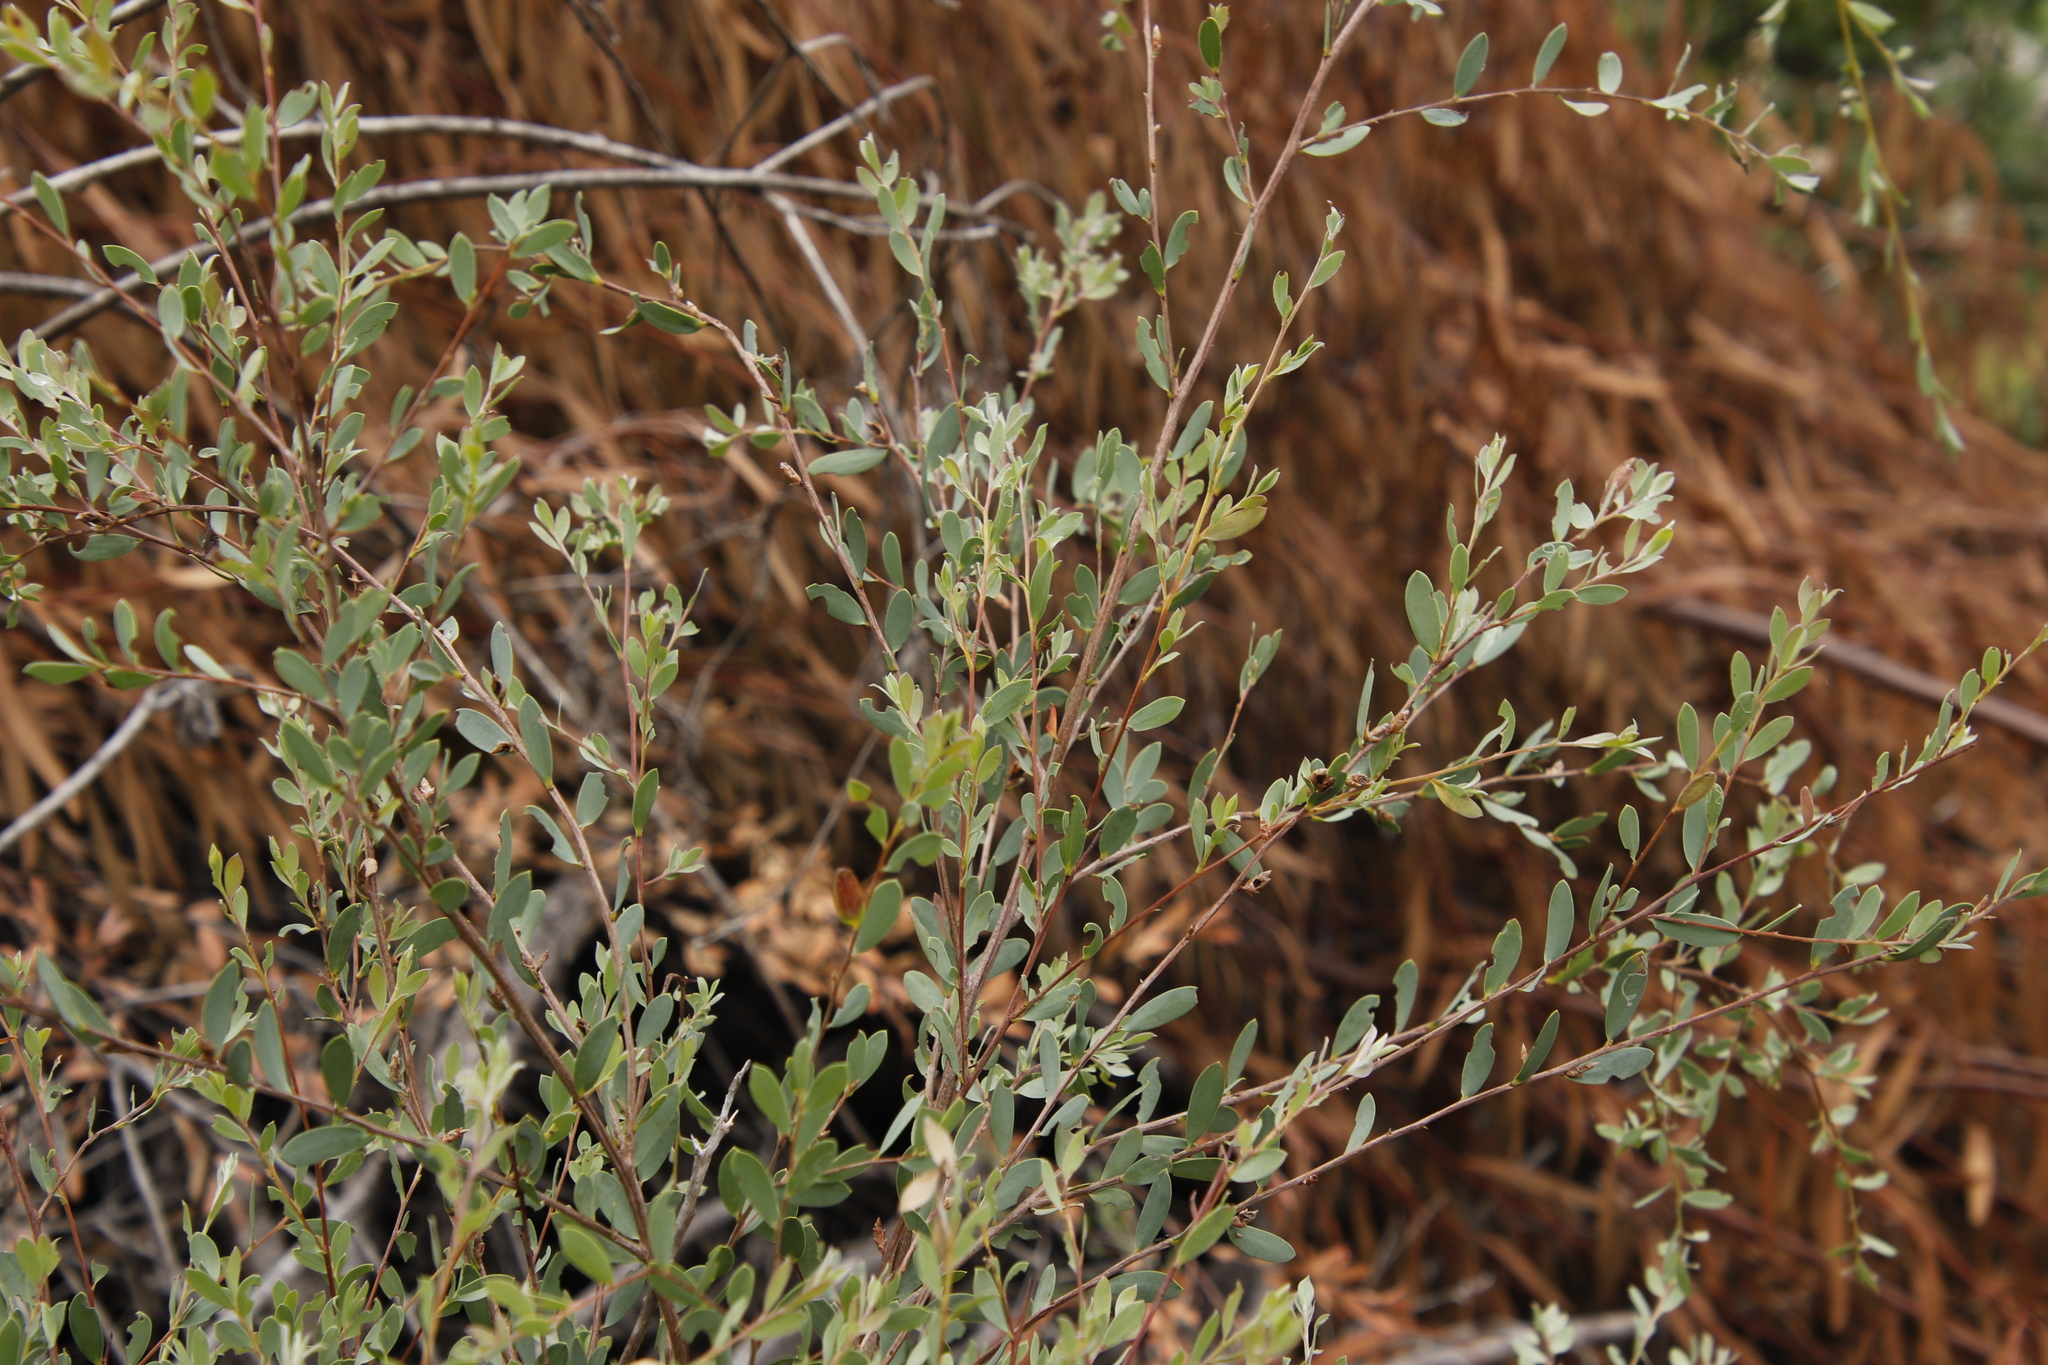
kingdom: Plantae
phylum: Tracheophyta
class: Magnoliopsida
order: Myrtales
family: Myrtaceae
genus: Leptospermum
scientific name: Leptospermum laevigatum
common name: Australian teatree
